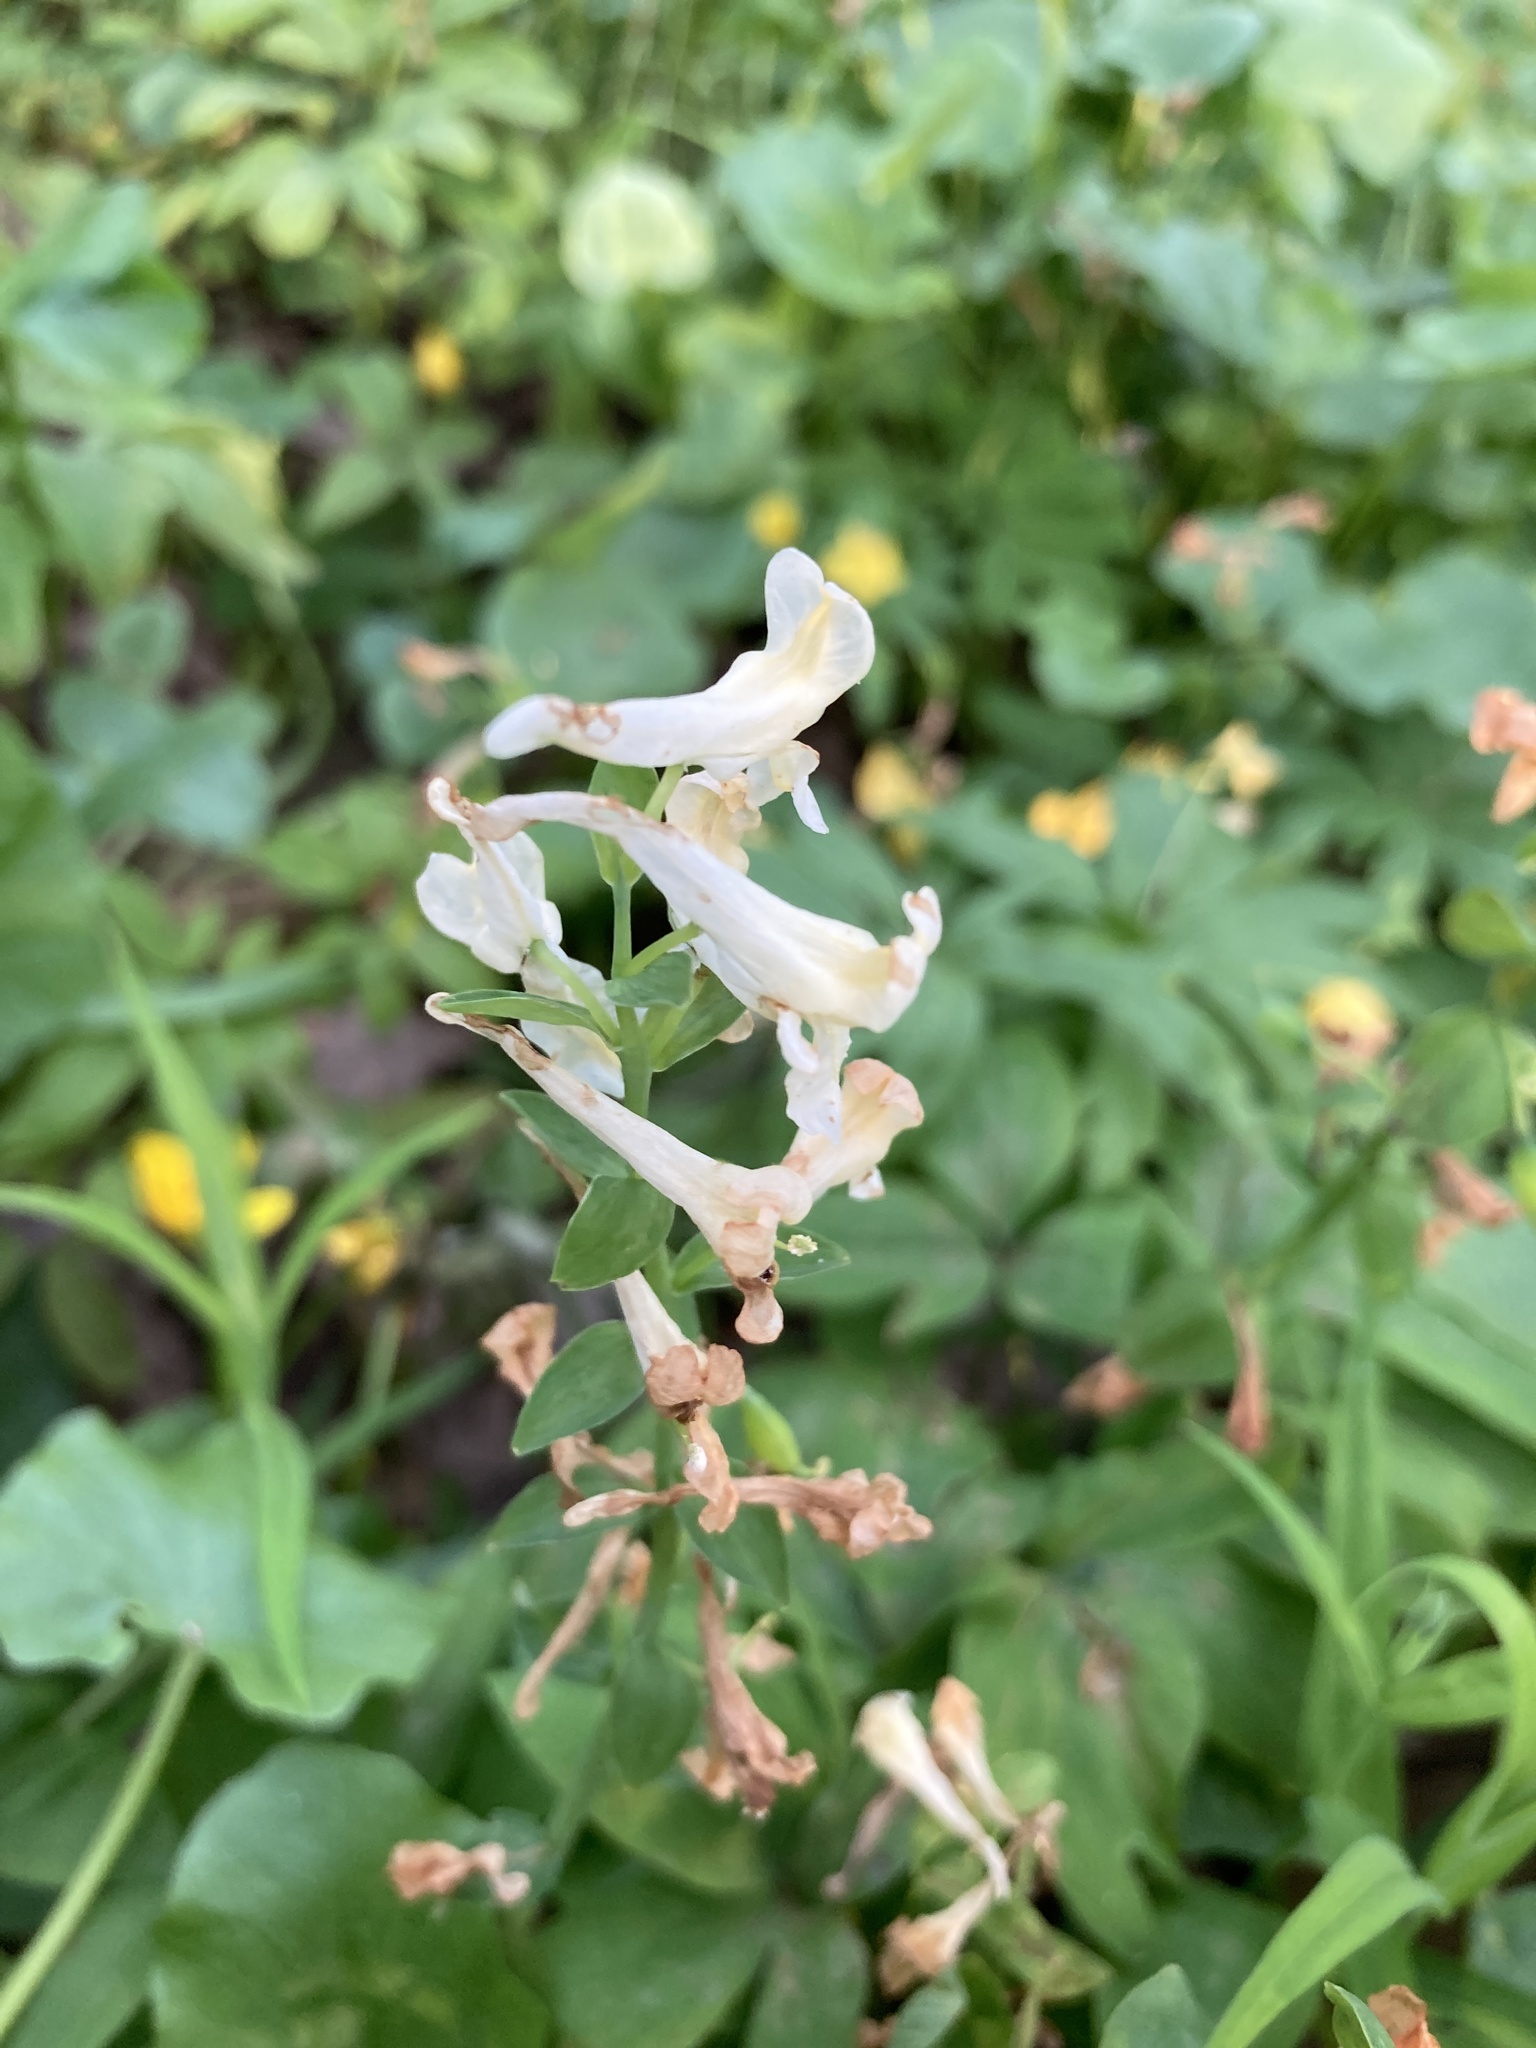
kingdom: Plantae
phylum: Tracheophyta
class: Magnoliopsida
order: Ranunculales
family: Papaveraceae
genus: Corydalis
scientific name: Corydalis cava
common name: Hollowroot
